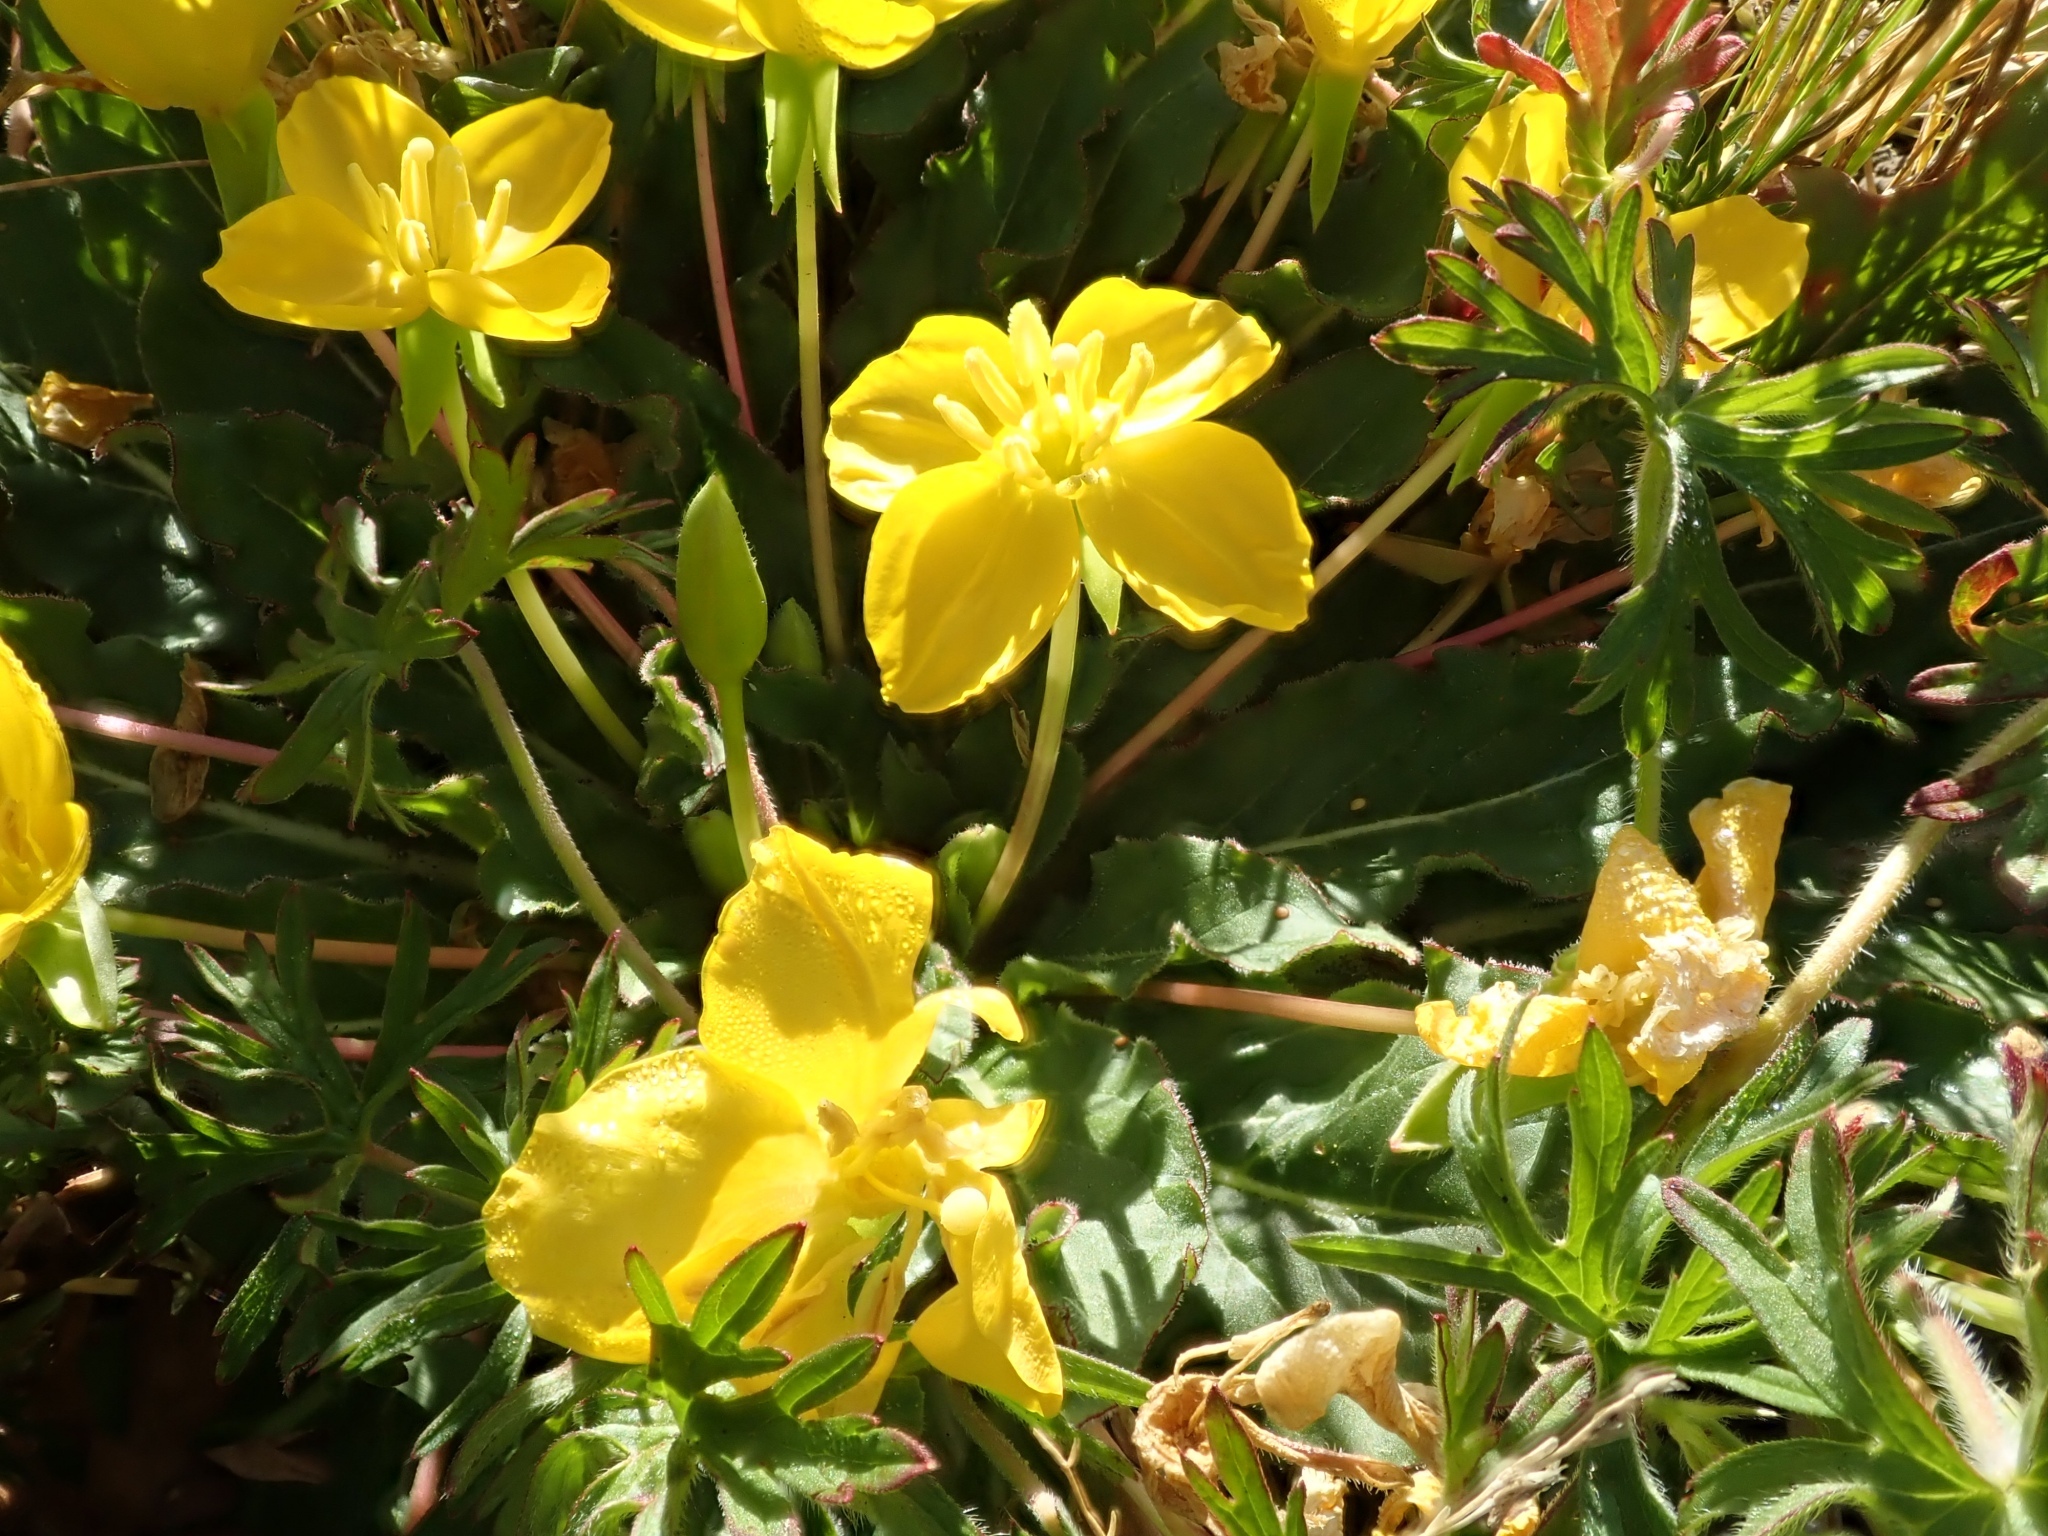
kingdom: Plantae
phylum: Tracheophyta
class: Magnoliopsida
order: Myrtales
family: Onagraceae
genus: Taraxia
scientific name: Taraxia ovata
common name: Goldeneggs
